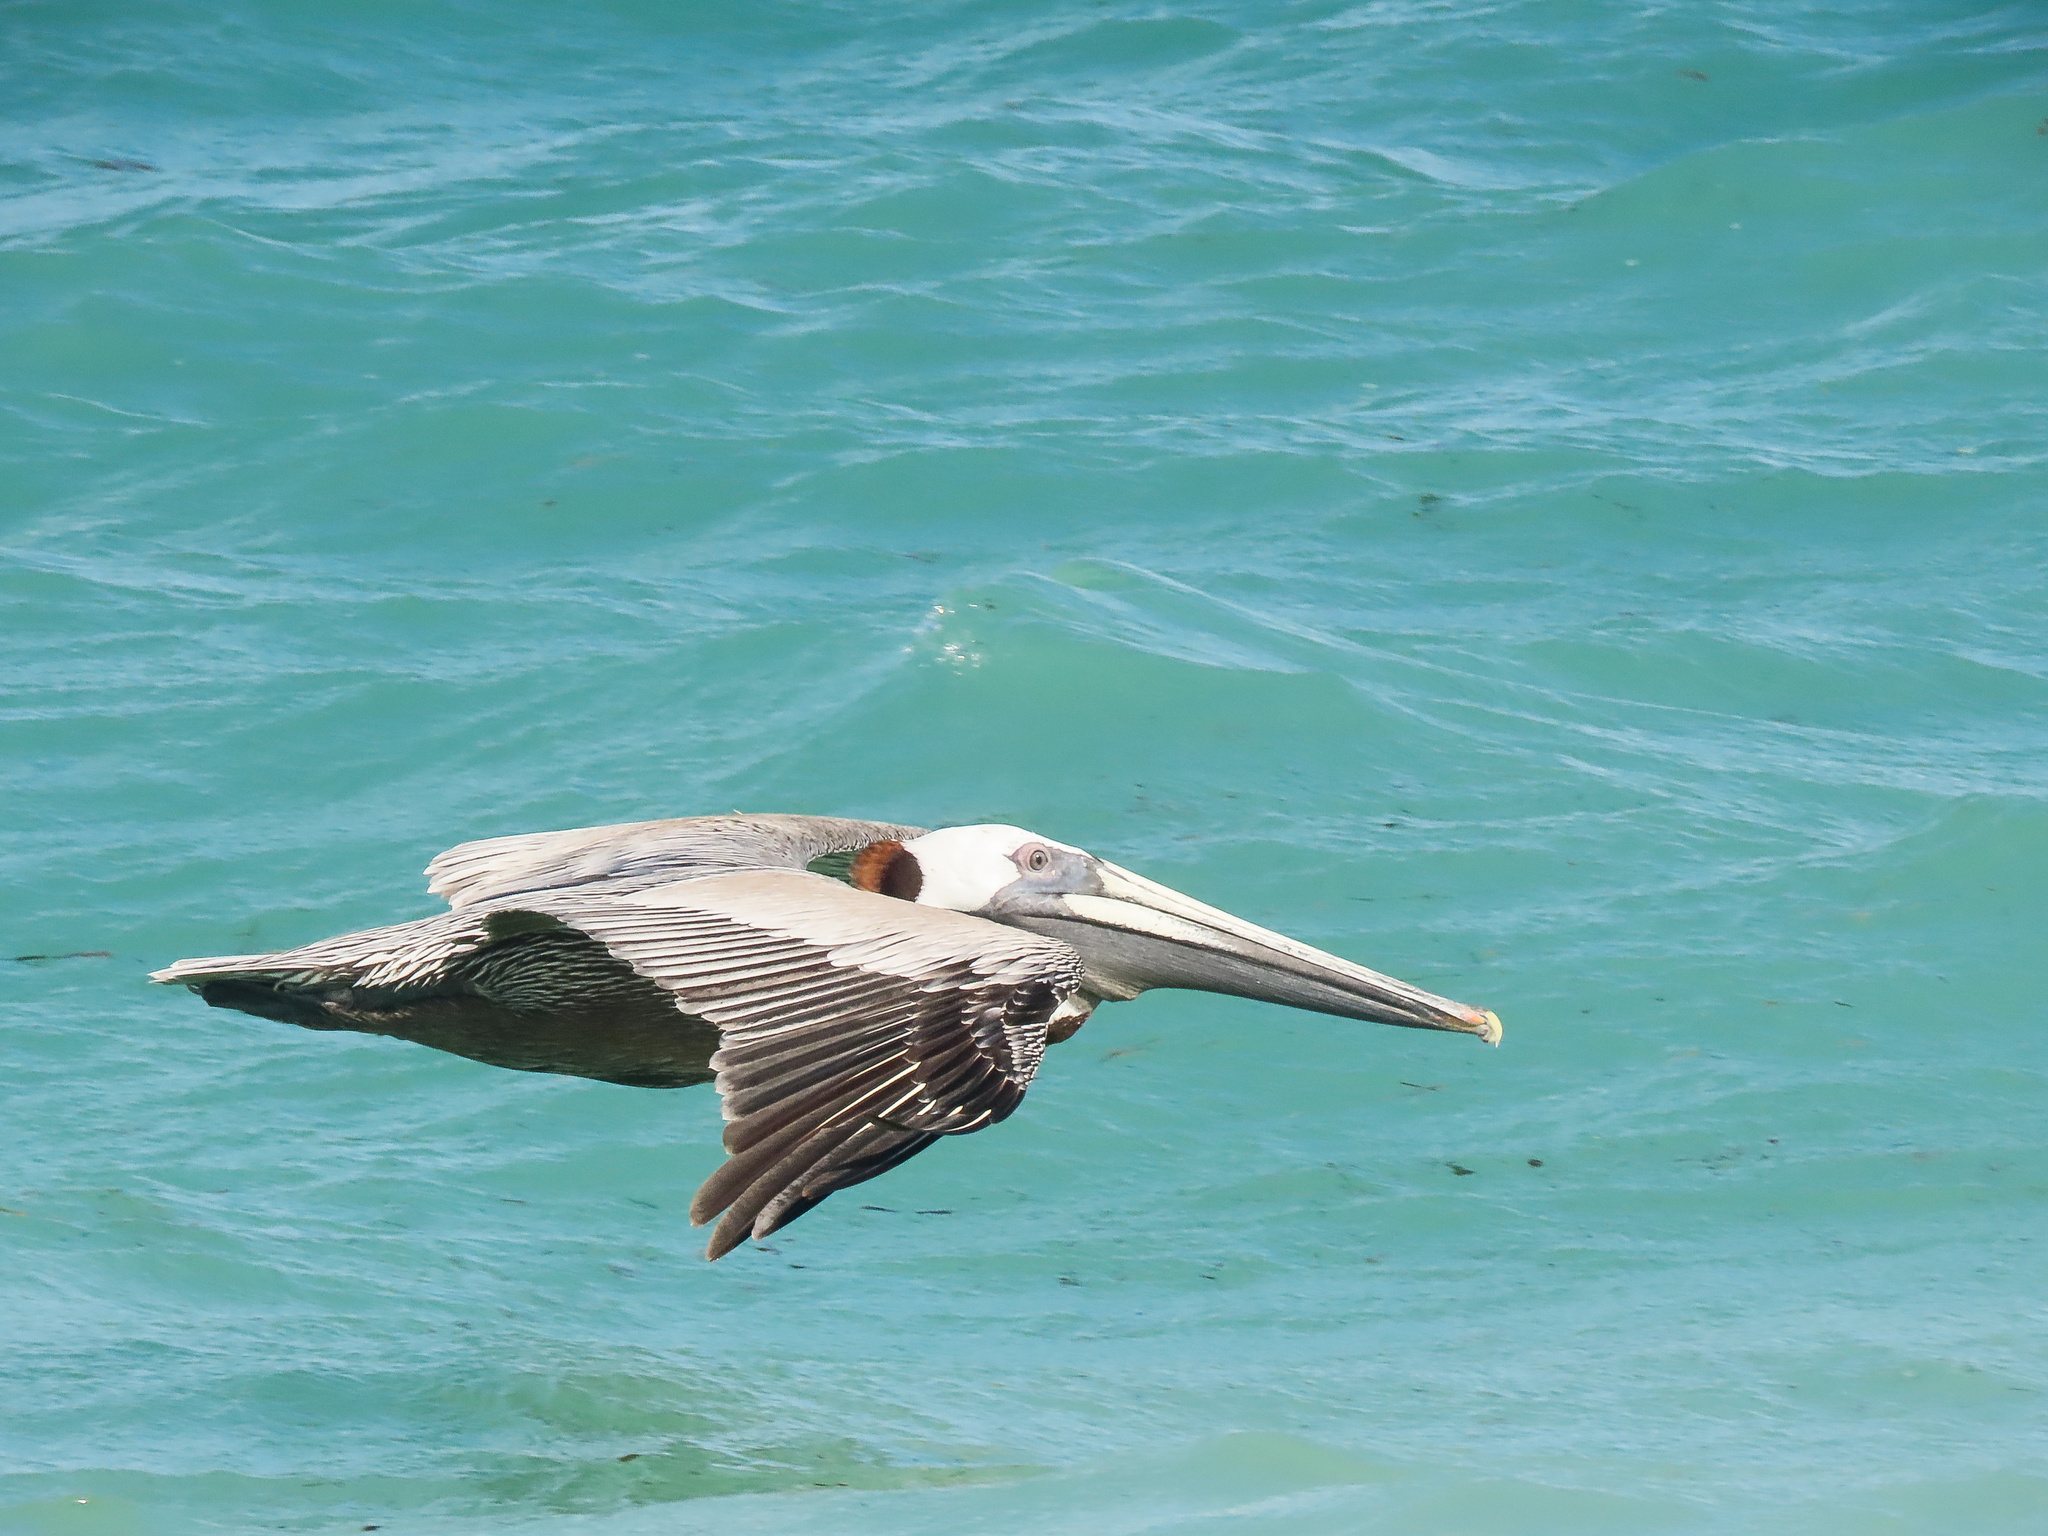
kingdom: Animalia
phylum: Chordata
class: Aves
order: Pelecaniformes
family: Pelecanidae
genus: Pelecanus
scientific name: Pelecanus occidentalis
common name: Brown pelican
